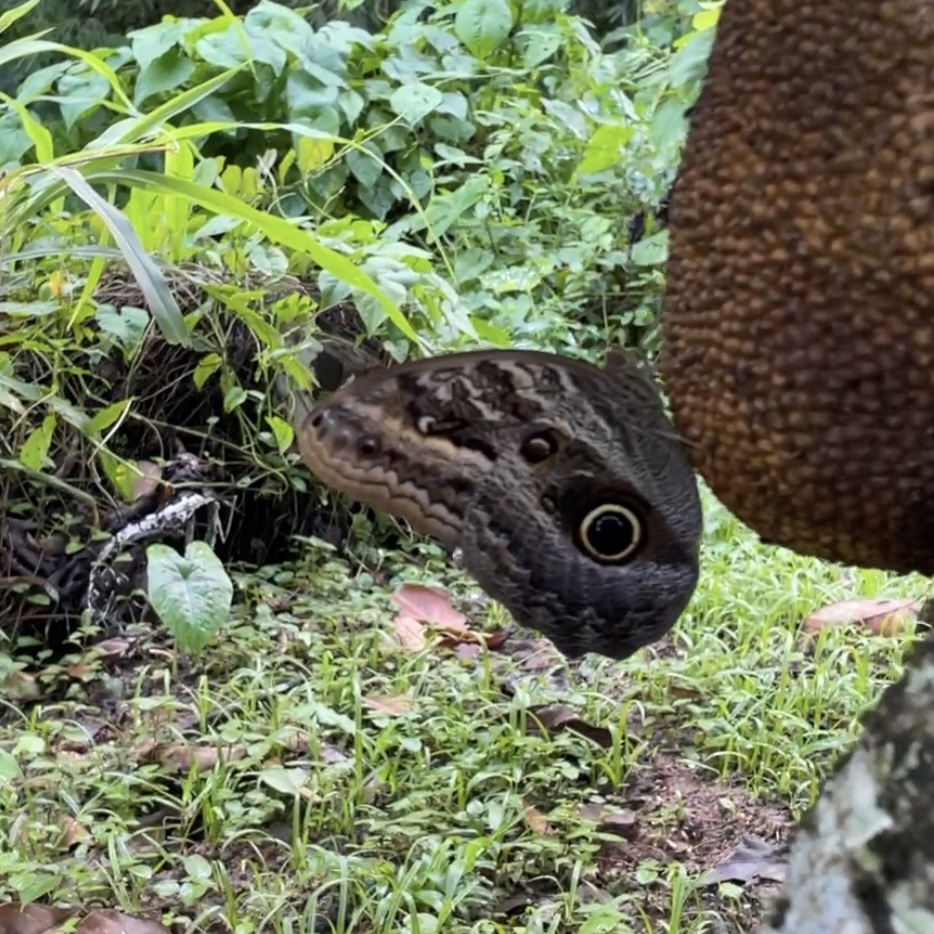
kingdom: Animalia
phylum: Arthropoda
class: Insecta
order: Lepidoptera
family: Nymphalidae
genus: Caligo
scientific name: Caligo teucer
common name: Teucer owl butterfly
